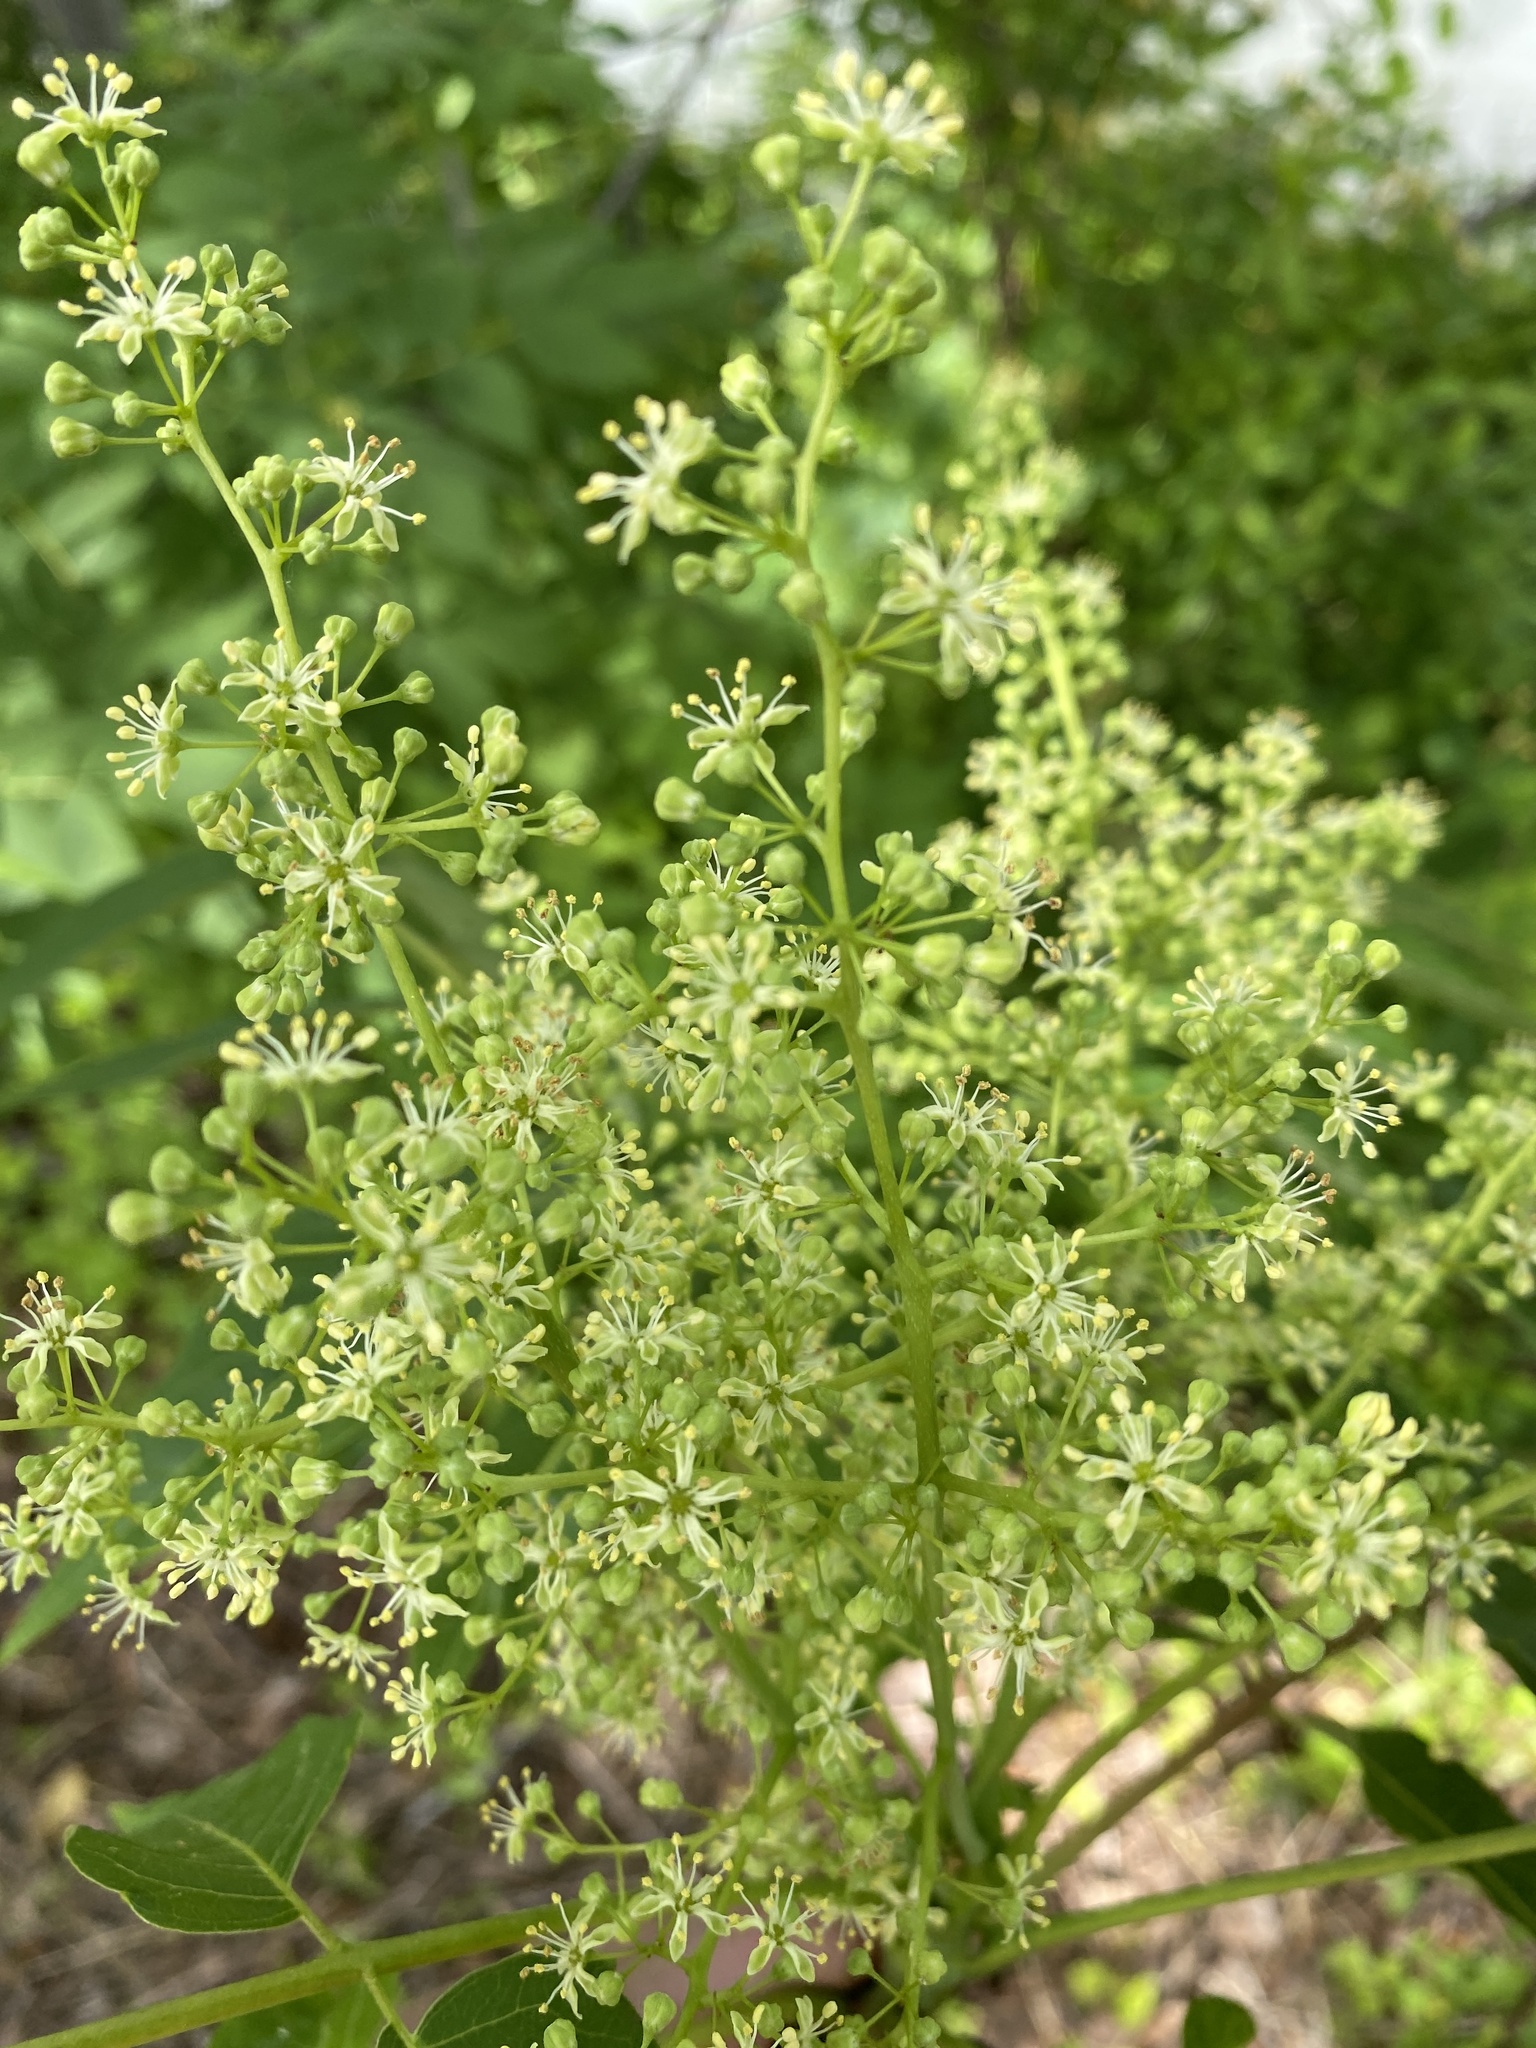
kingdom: Plantae
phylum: Tracheophyta
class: Magnoliopsida
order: Sapindales
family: Simaroubaceae
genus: Ailanthus
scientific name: Ailanthus altissima
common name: Tree-of-heaven
